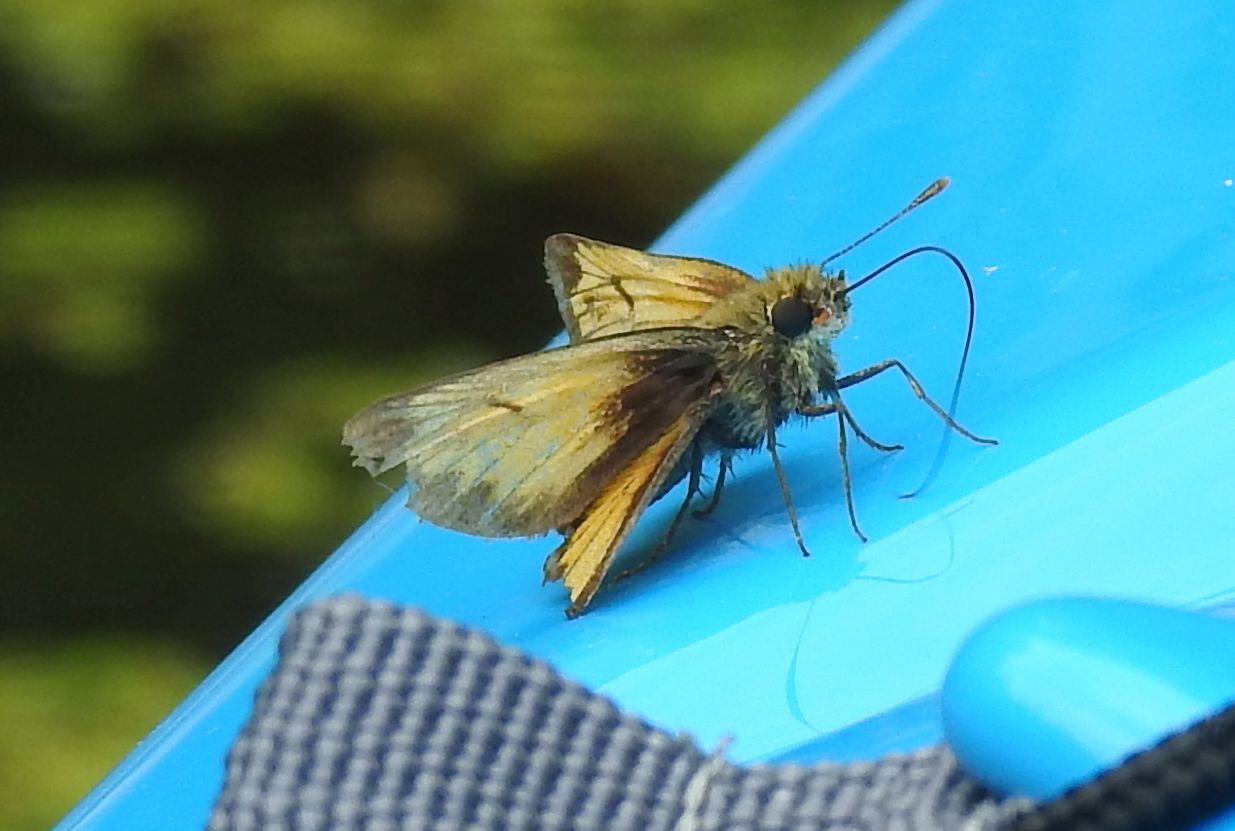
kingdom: Animalia
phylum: Arthropoda
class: Insecta
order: Lepidoptera
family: Hesperiidae
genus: Lon
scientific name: Lon hobomok
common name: Hobomok skipper
